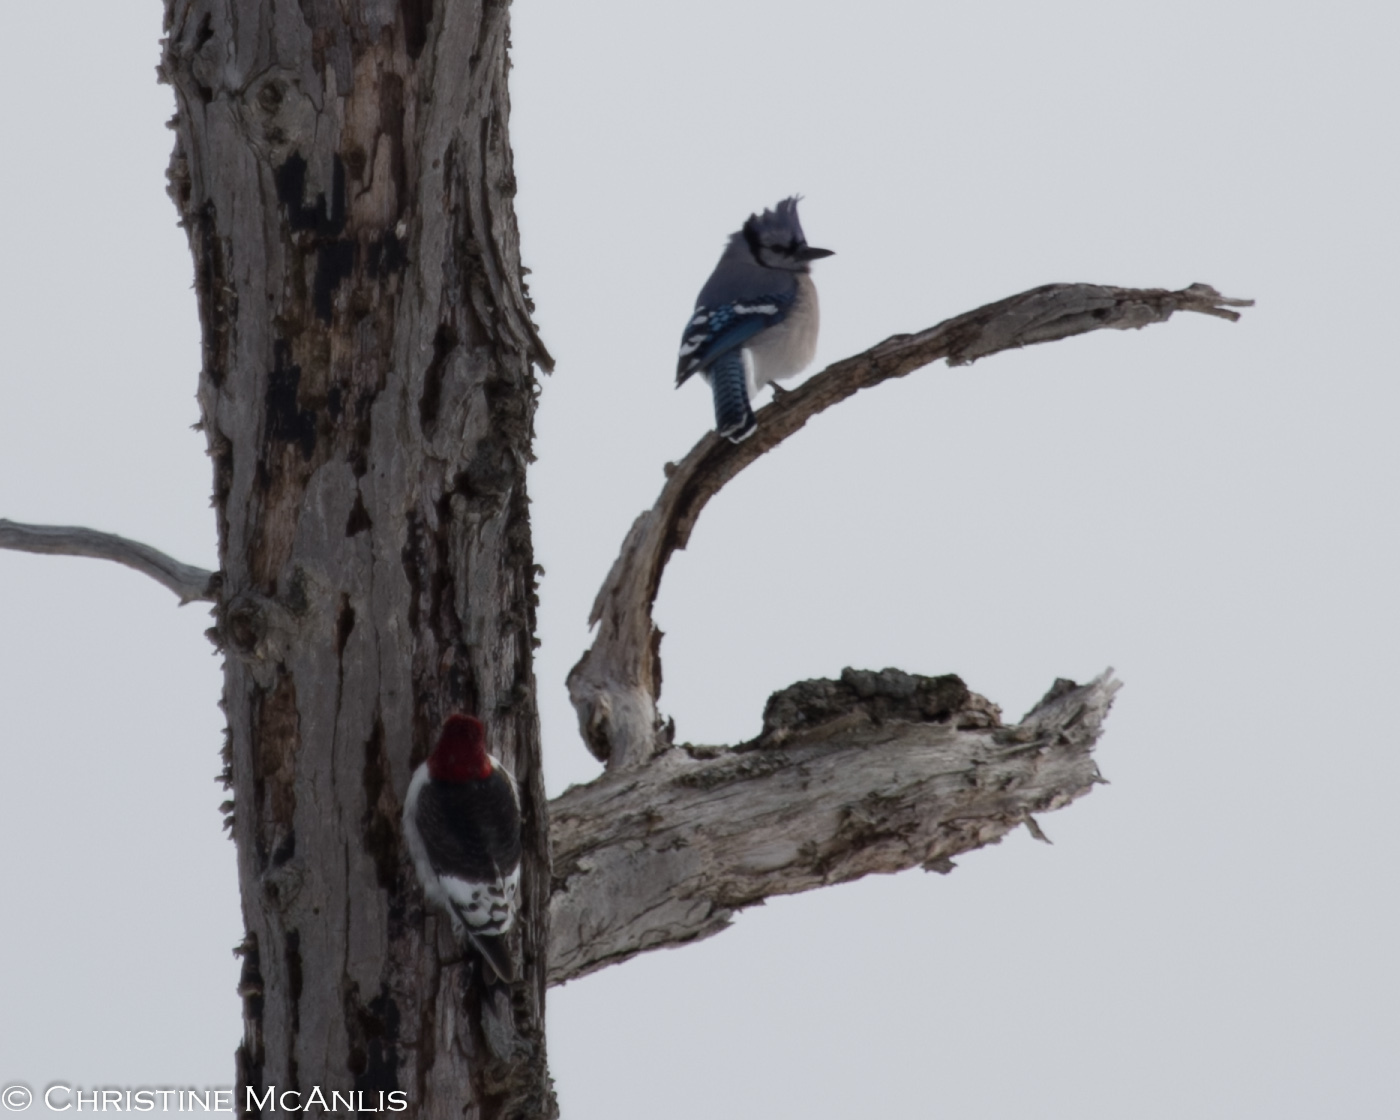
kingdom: Animalia
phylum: Chordata
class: Aves
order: Piciformes
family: Picidae
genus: Melanerpes
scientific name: Melanerpes erythrocephalus
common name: Red-headed woodpecker
